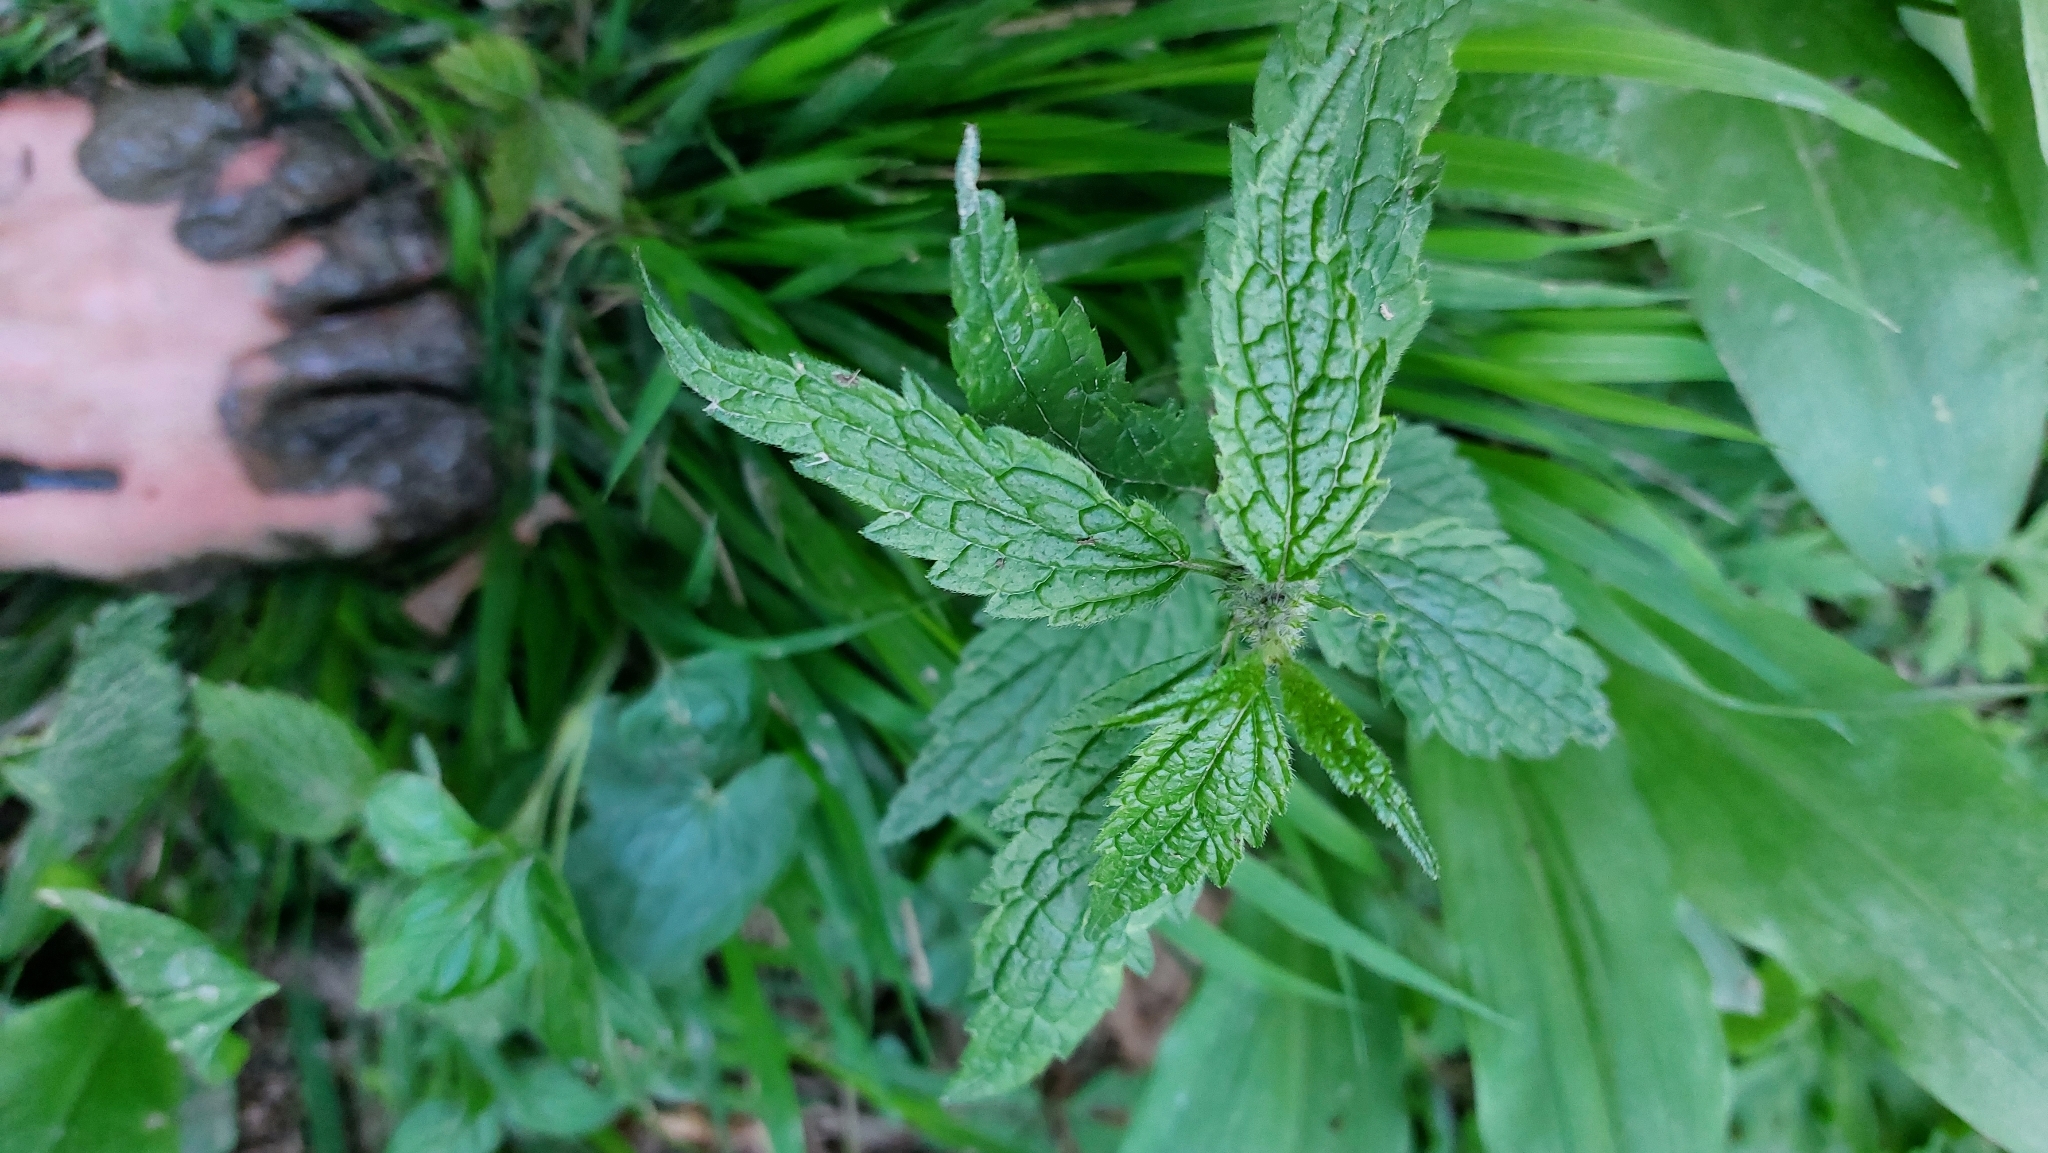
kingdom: Plantae
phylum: Tracheophyta
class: Magnoliopsida
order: Lamiales
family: Lamiaceae
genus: Lamium
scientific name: Lamium galeobdolon
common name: Yellow archangel
